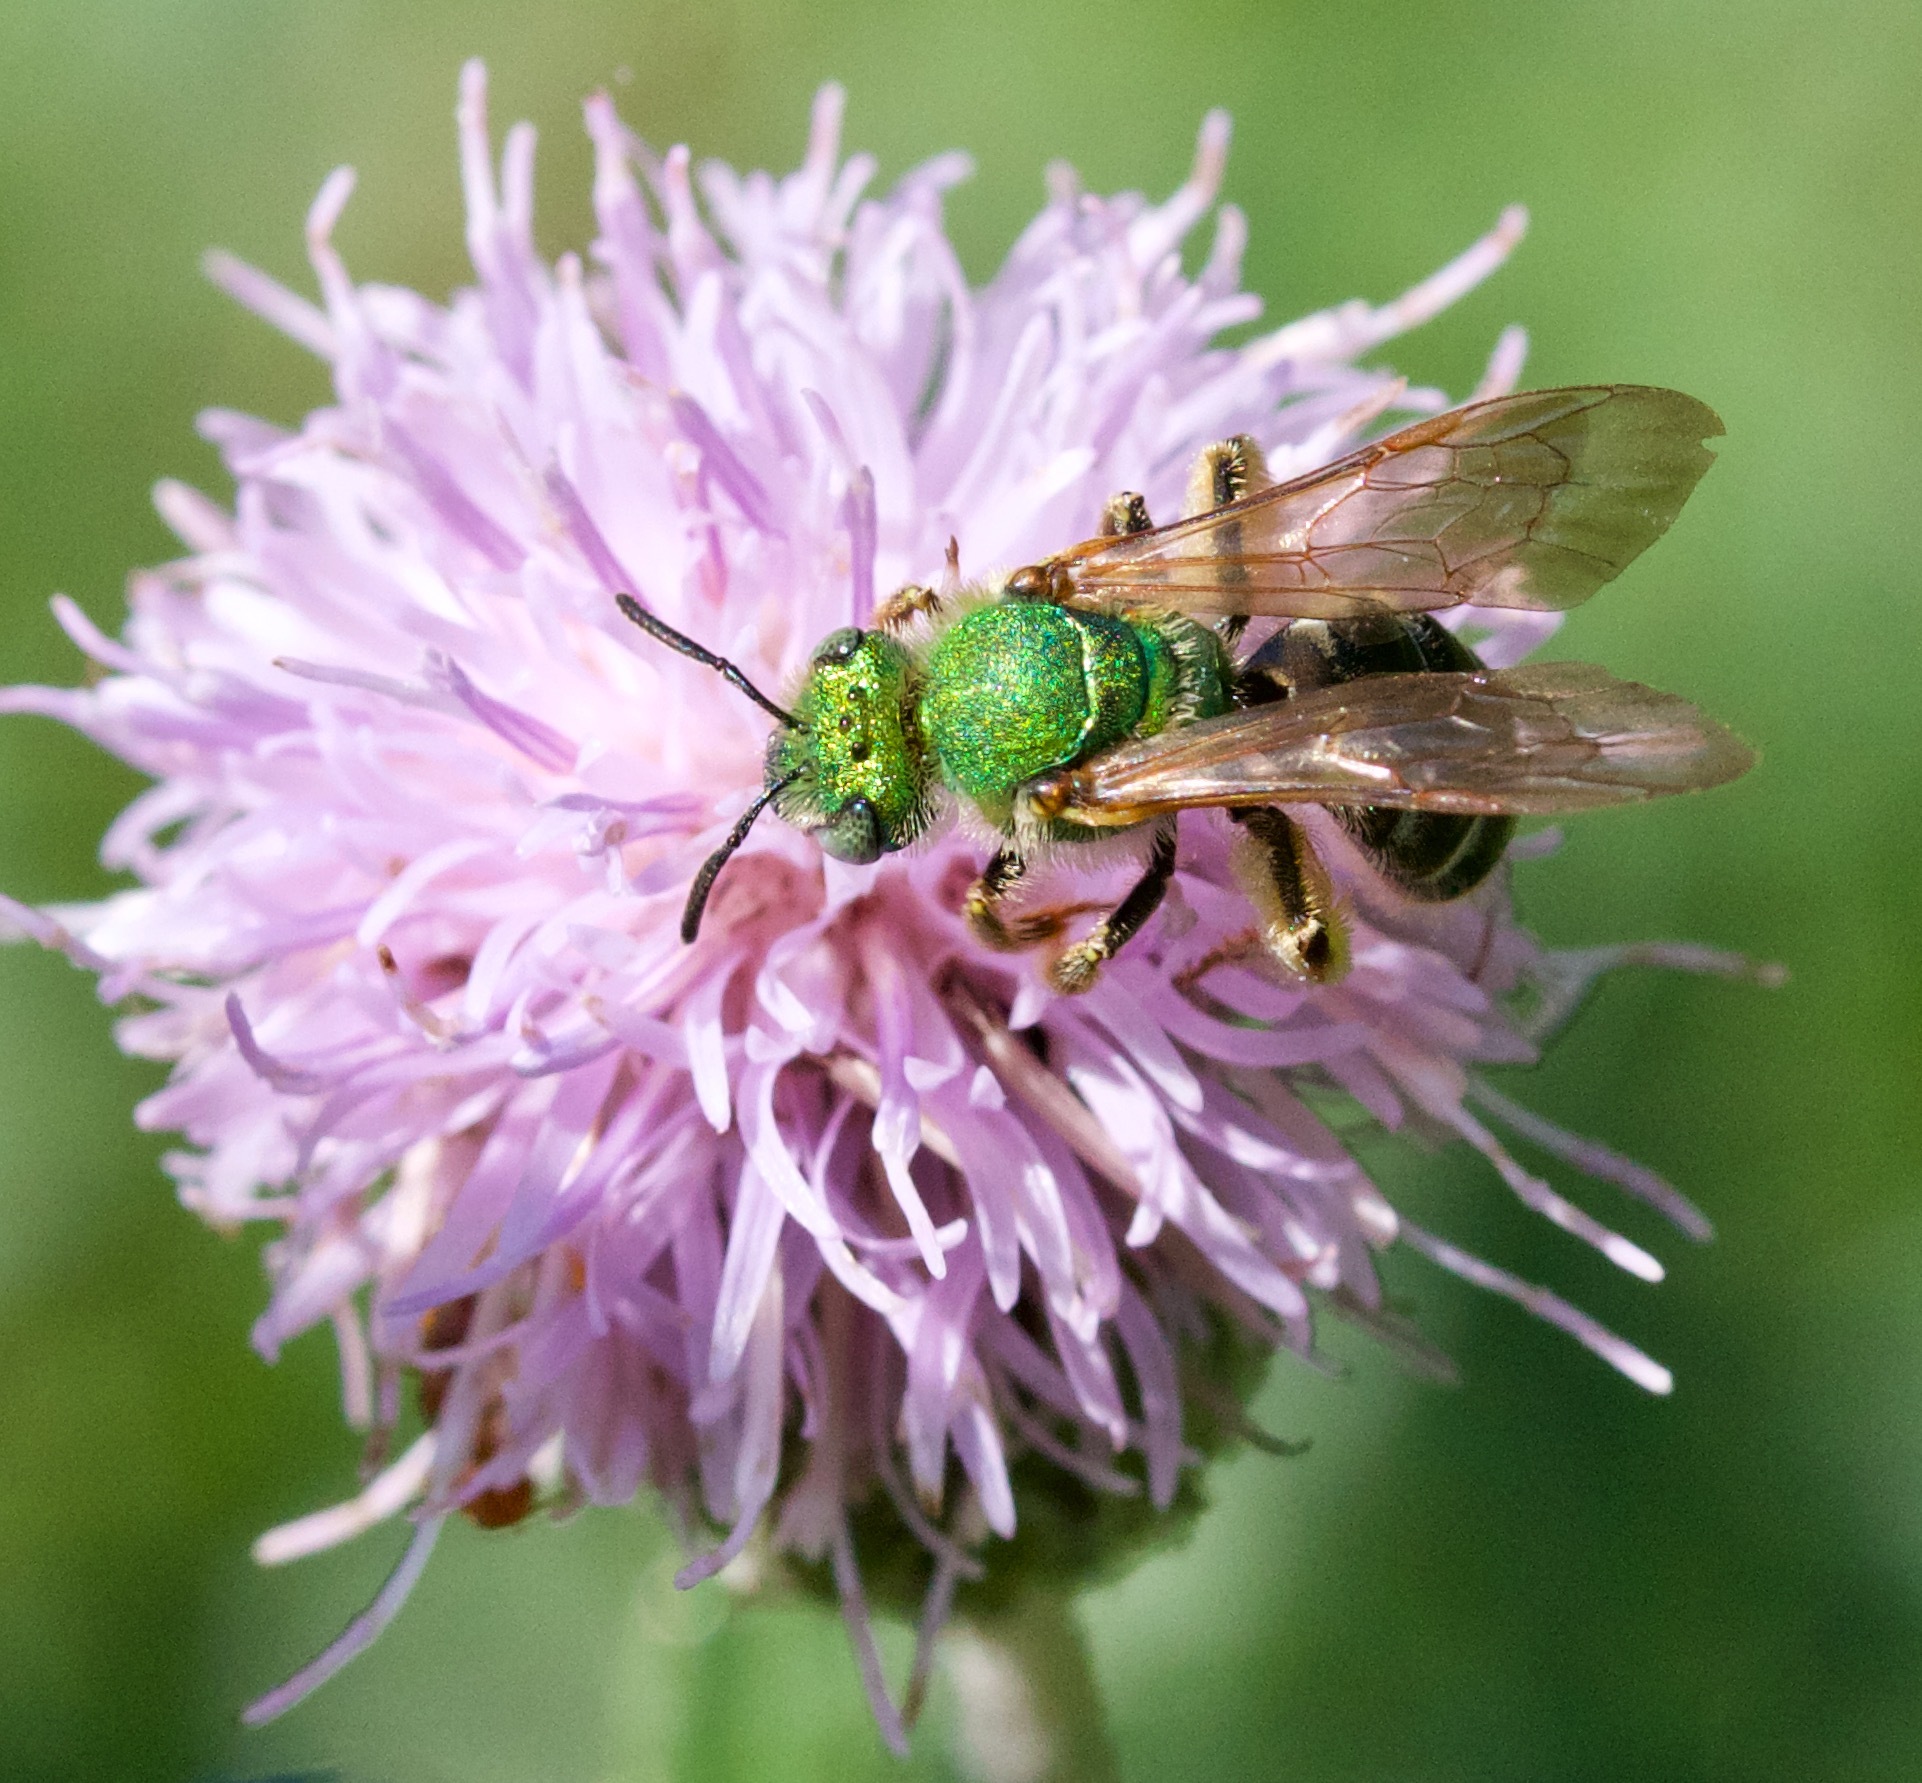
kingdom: Animalia
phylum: Arthropoda
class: Insecta
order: Hymenoptera
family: Halictidae
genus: Agapostemon
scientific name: Agapostemon virescens
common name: Bicolored striped sweat bee
